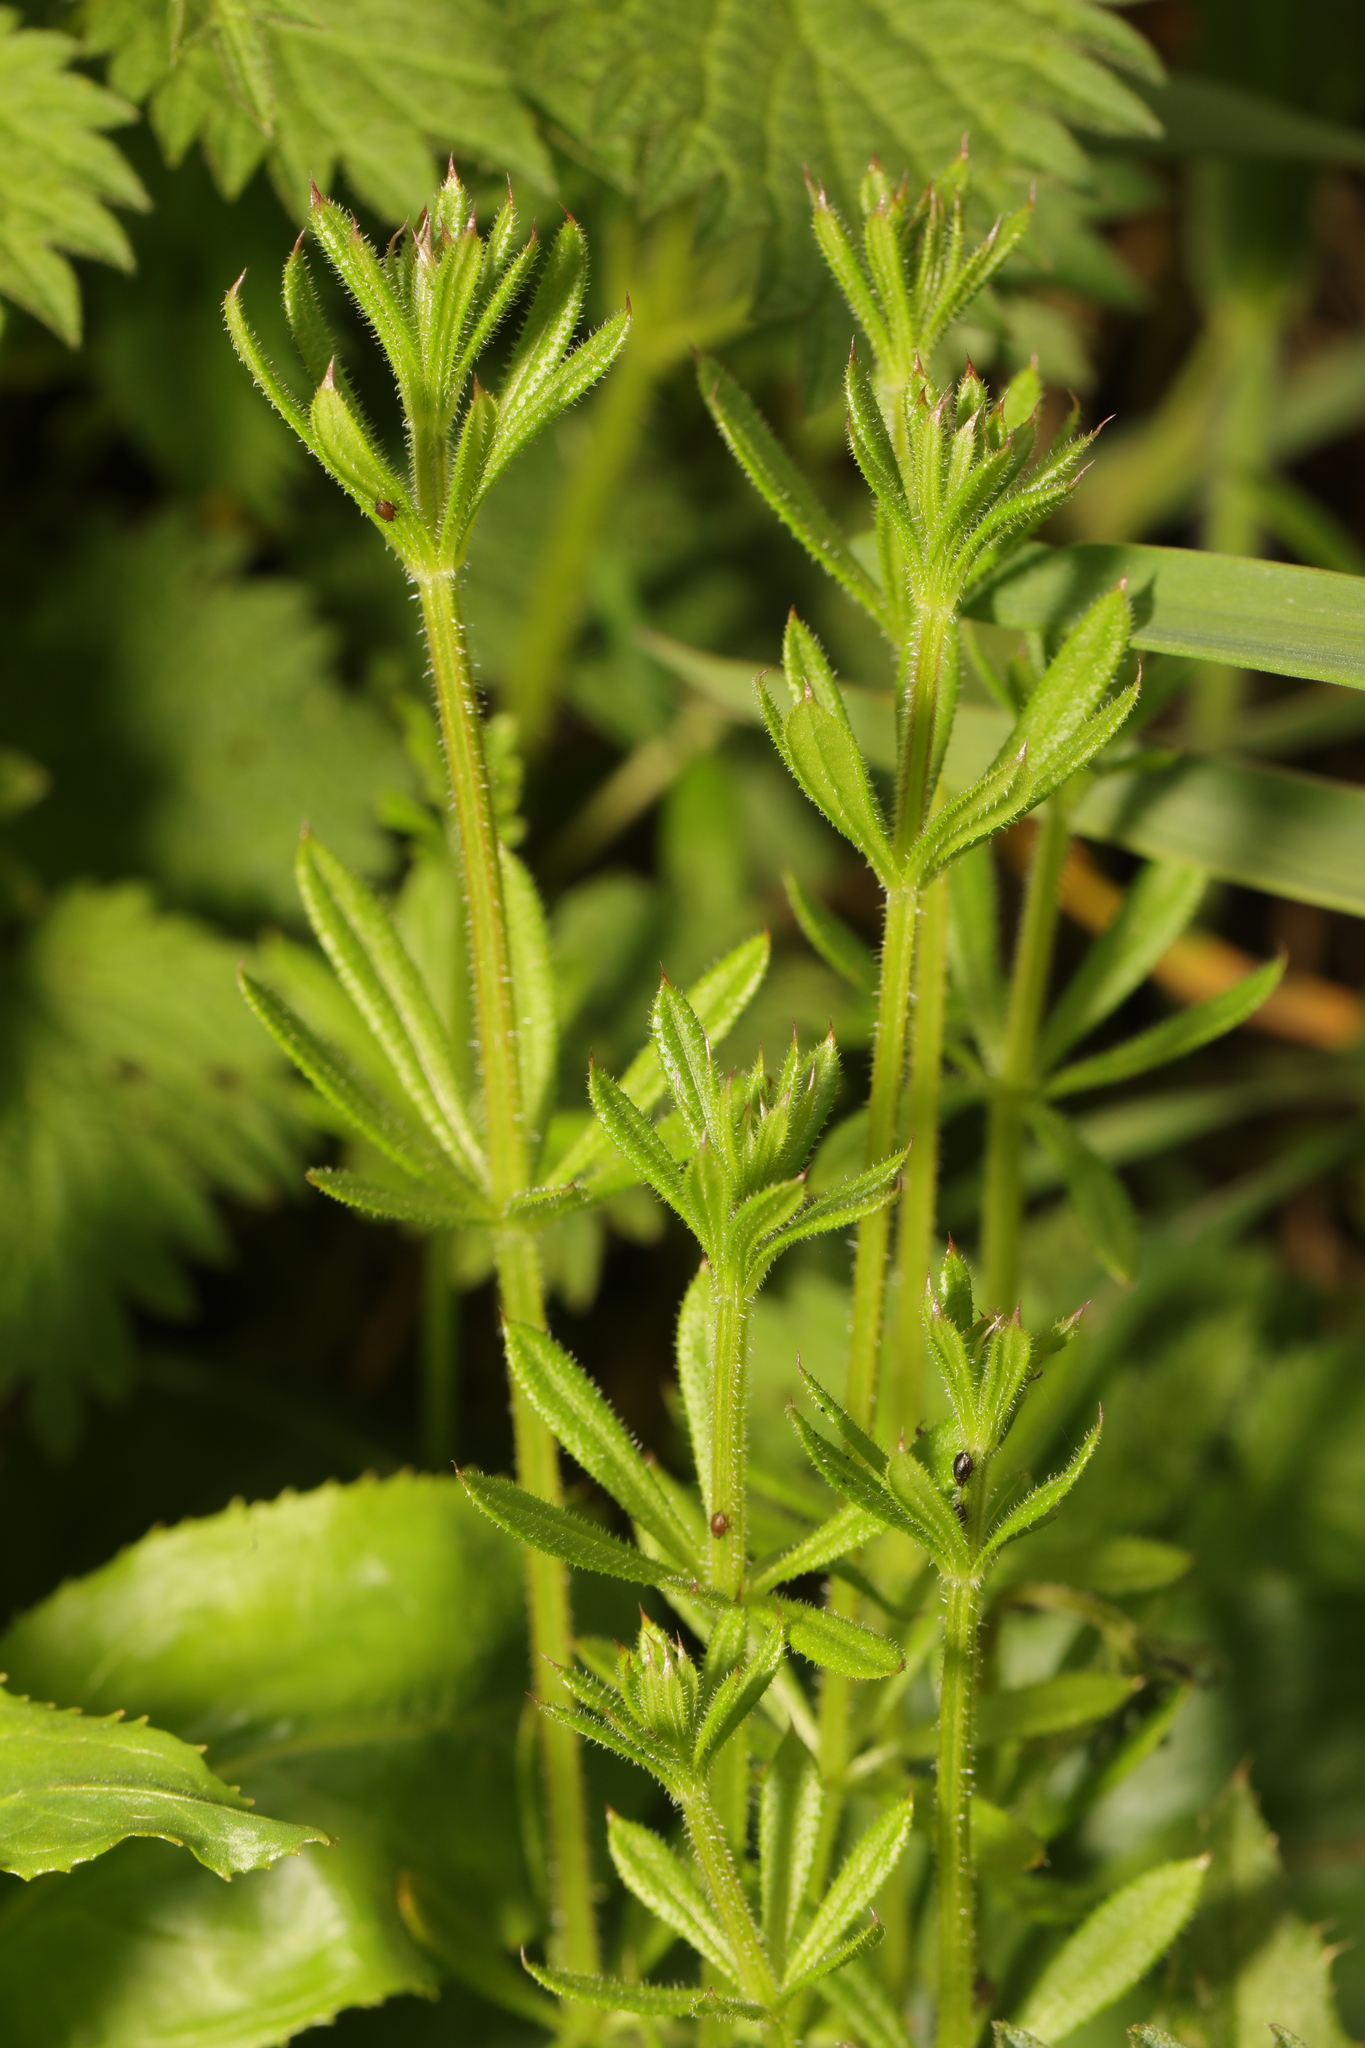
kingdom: Plantae
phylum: Tracheophyta
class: Magnoliopsida
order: Gentianales
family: Rubiaceae
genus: Galium
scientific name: Galium aparine
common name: Cleavers
